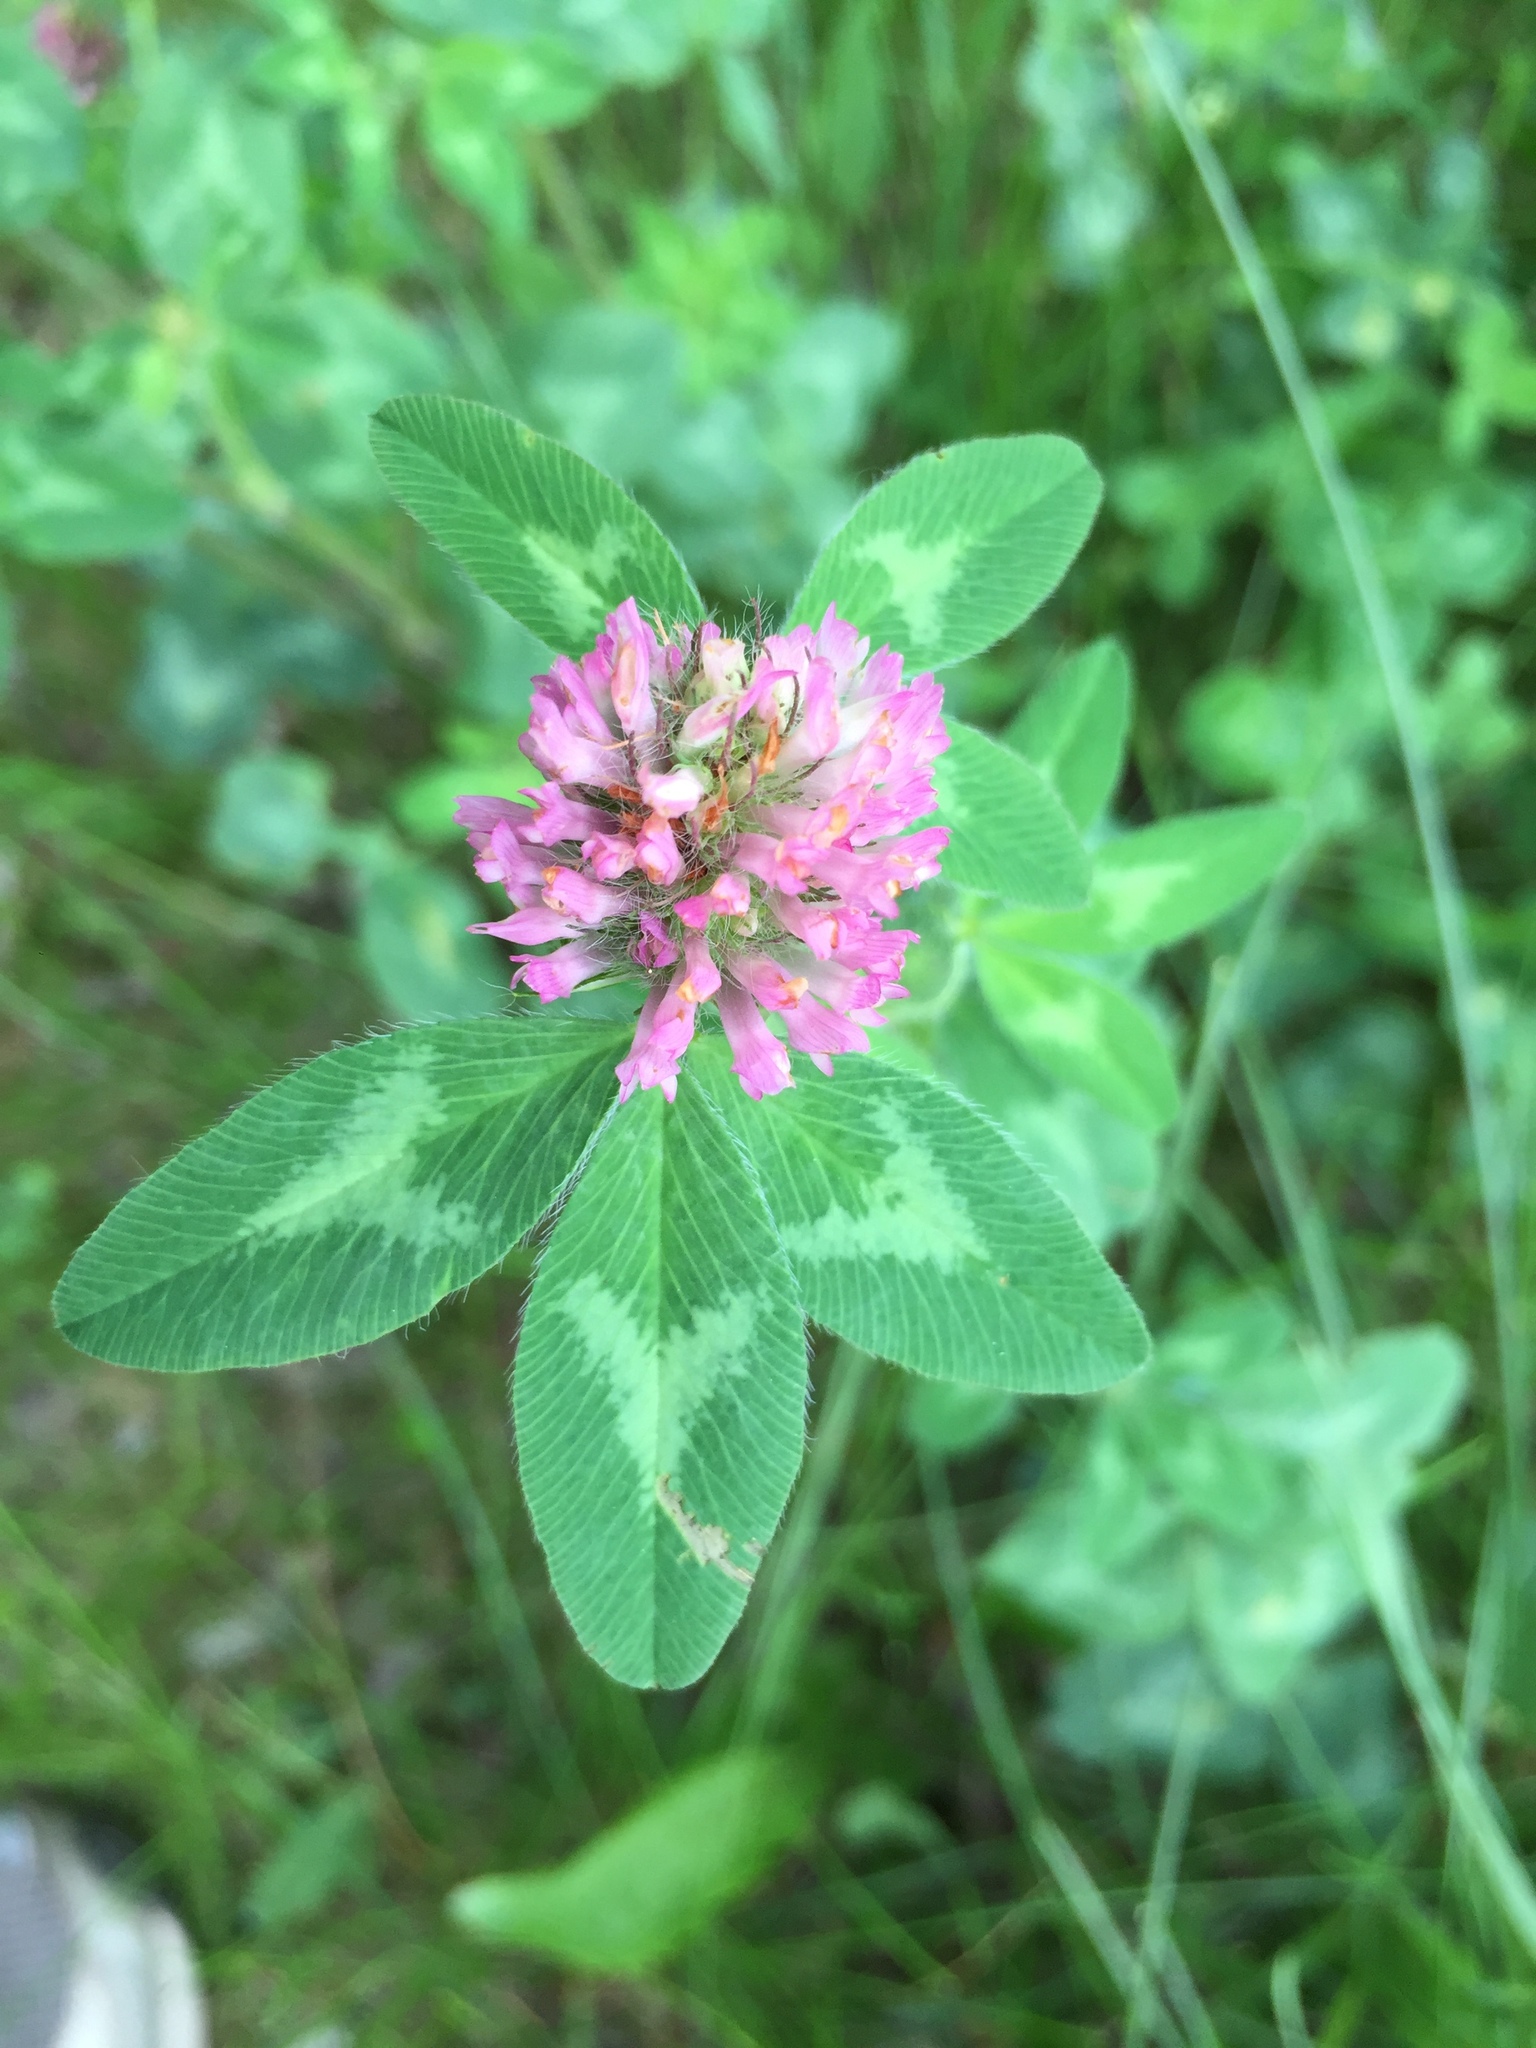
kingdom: Plantae
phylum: Tracheophyta
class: Magnoliopsida
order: Fabales
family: Fabaceae
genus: Trifolium
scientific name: Trifolium pratense
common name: Red clover
